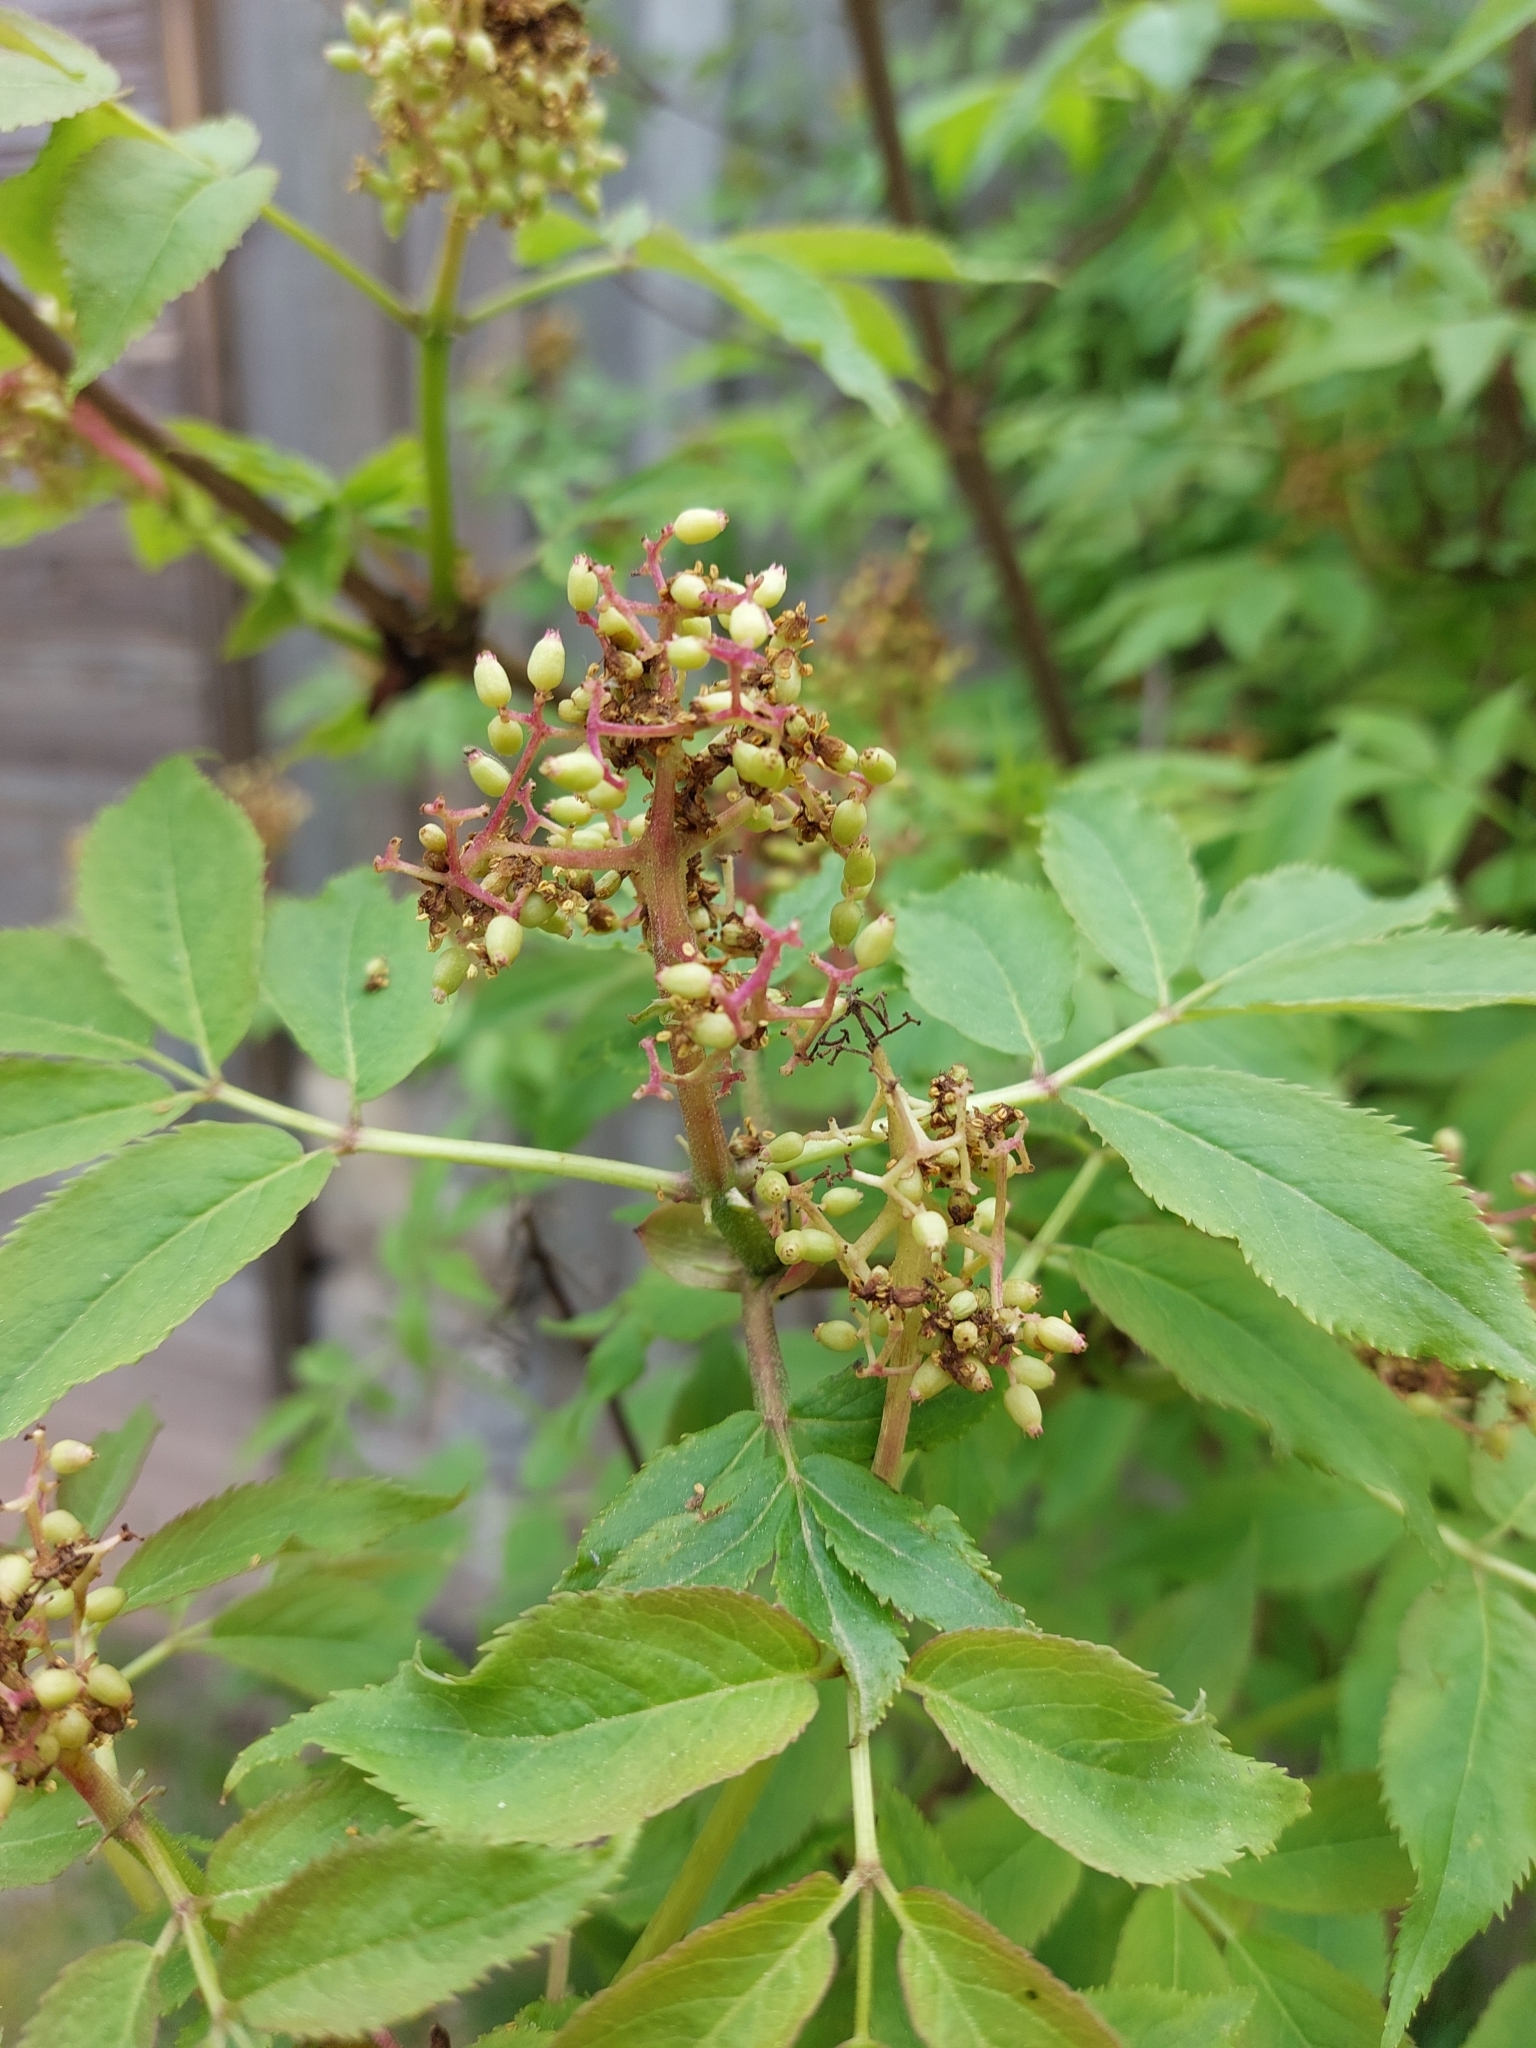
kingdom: Plantae
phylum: Tracheophyta
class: Magnoliopsida
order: Dipsacales
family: Viburnaceae
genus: Sambucus
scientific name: Sambucus racemosa
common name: Red-berried elder
